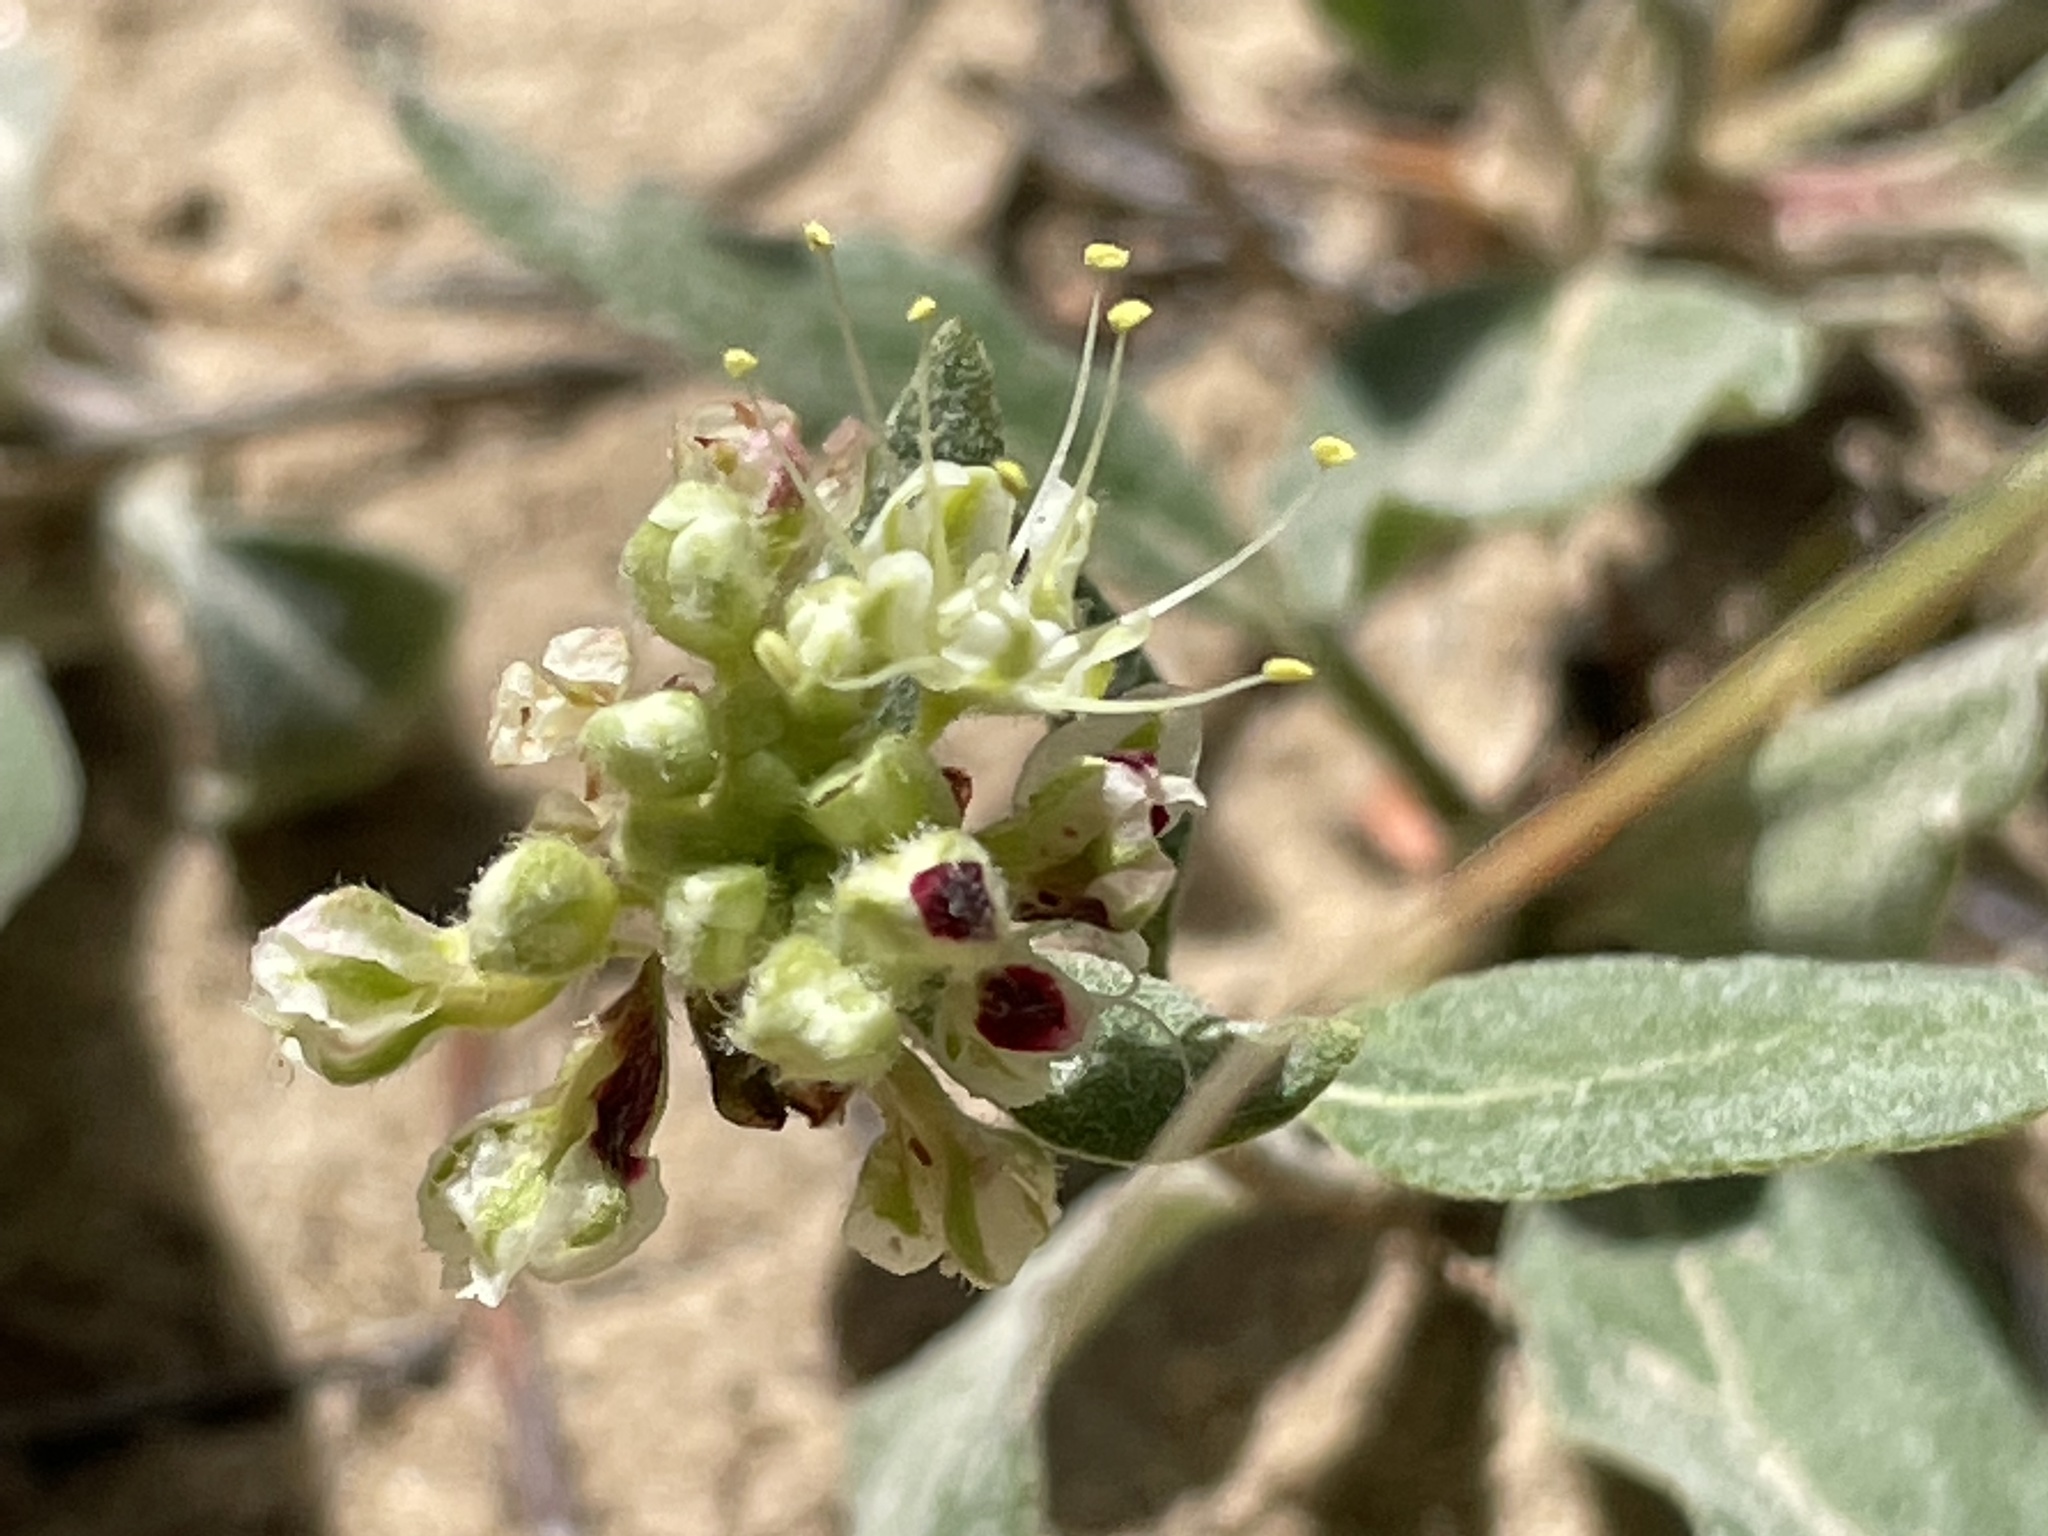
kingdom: Plantae
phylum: Tracheophyta
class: Magnoliopsida
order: Caryophyllales
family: Polygonaceae
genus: Eriogonum
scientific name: Eriogonum jamesii
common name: Antelope-sage
